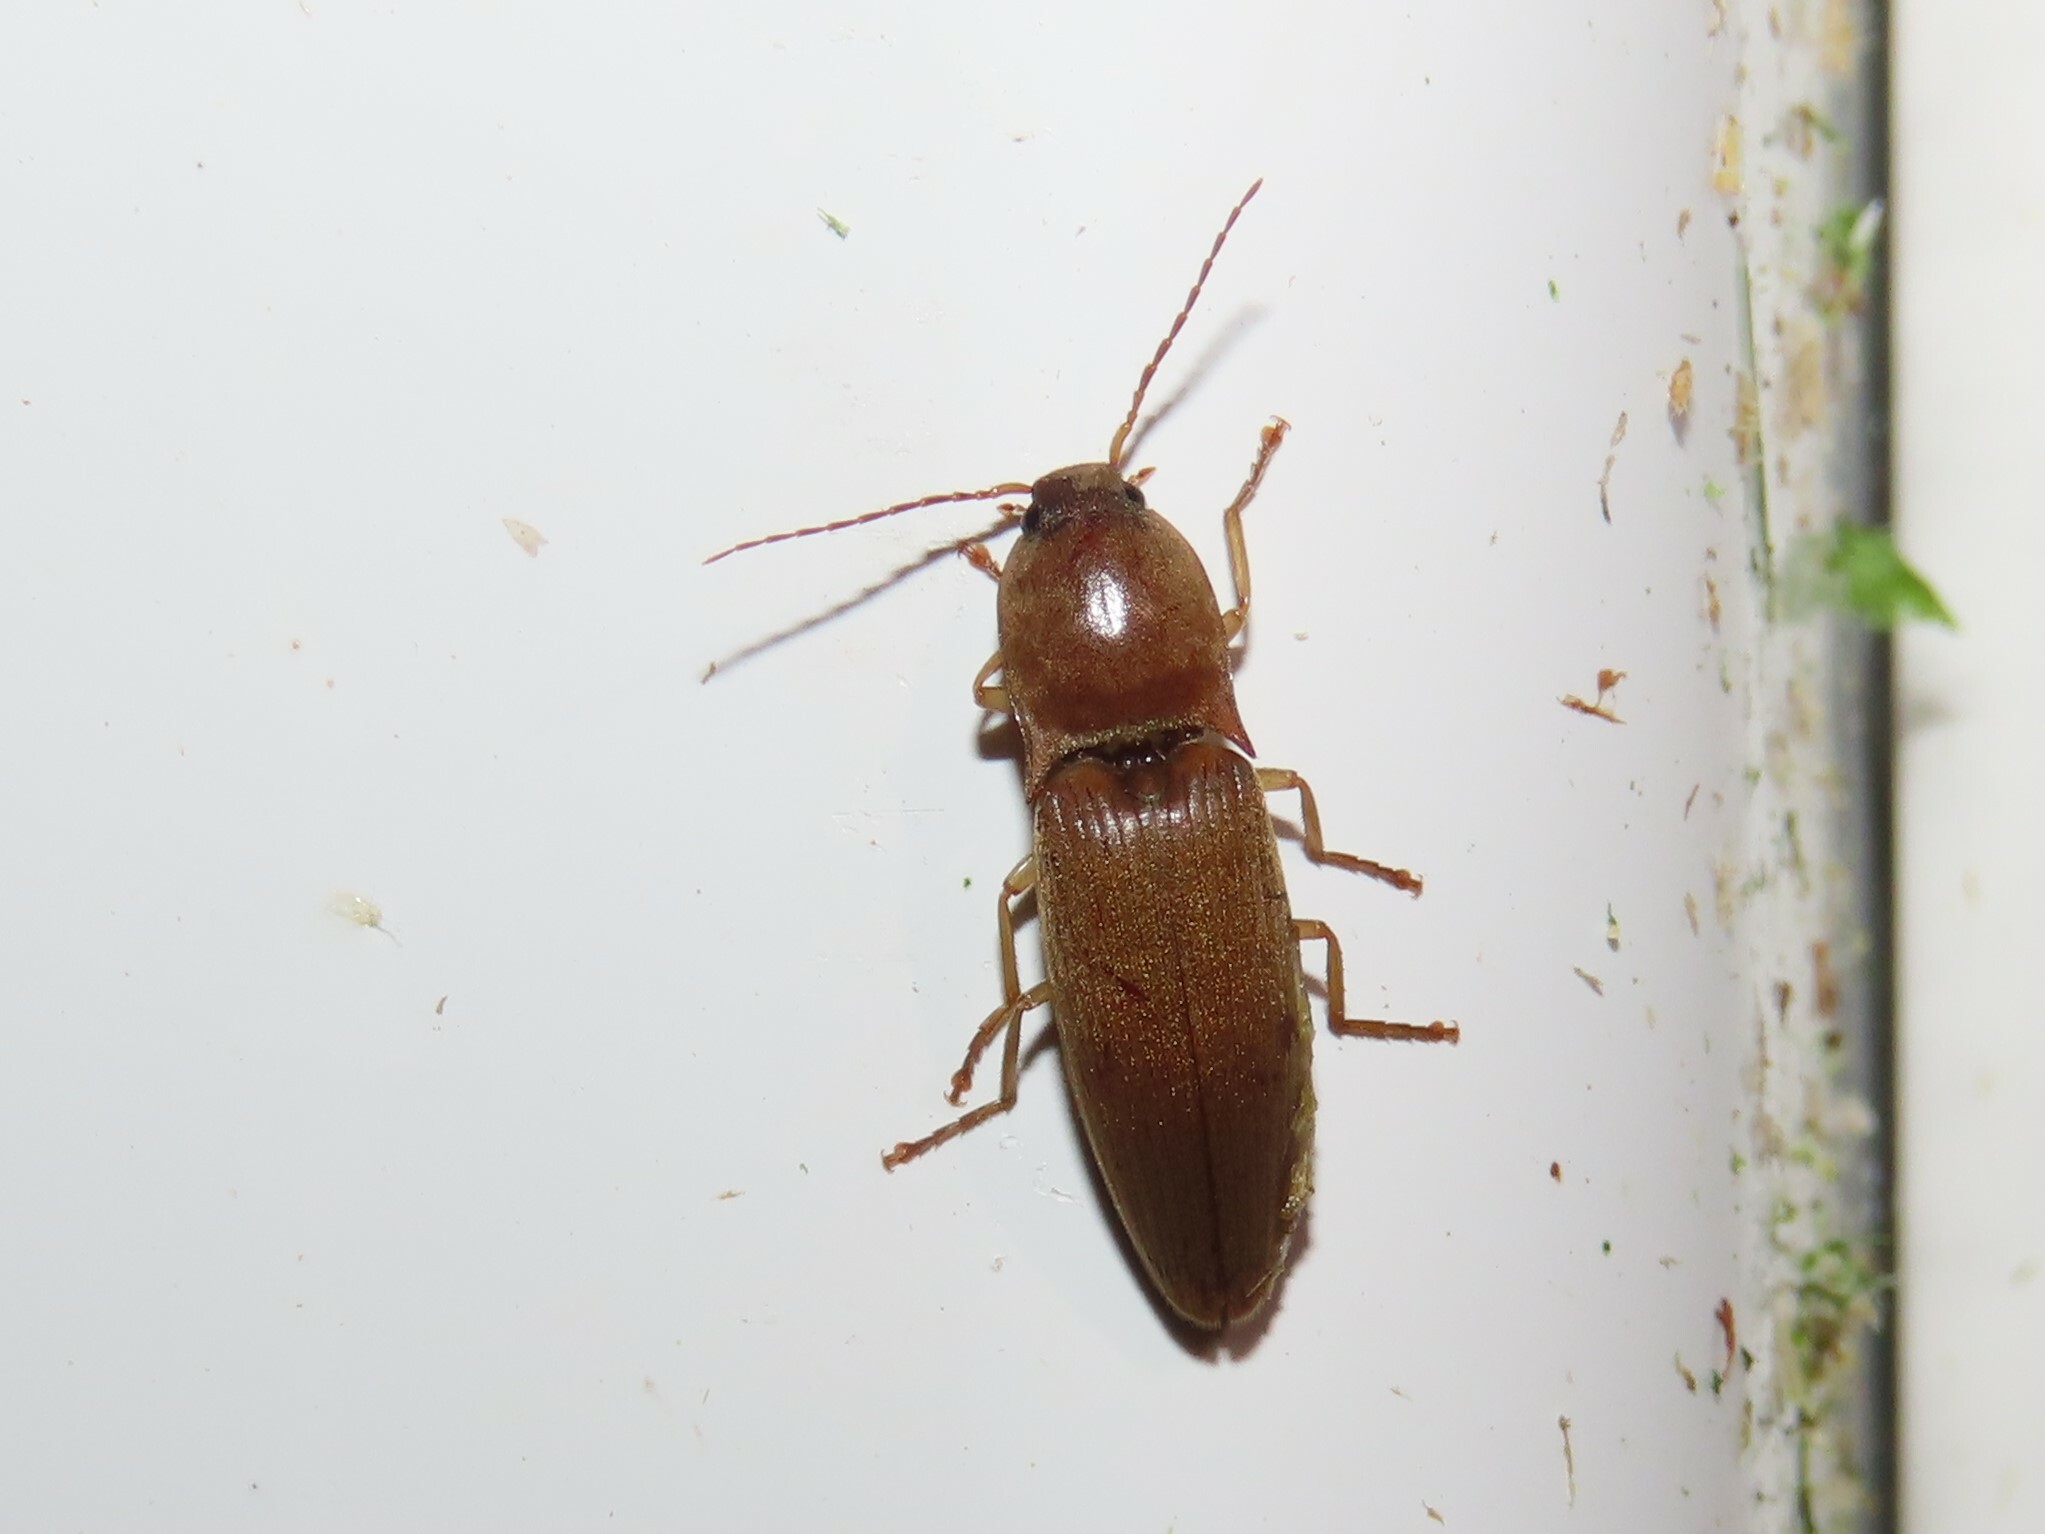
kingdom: Animalia
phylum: Arthropoda
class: Insecta
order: Coleoptera
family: Elateridae
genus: Monocrepidius
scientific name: Monocrepidius lividus
